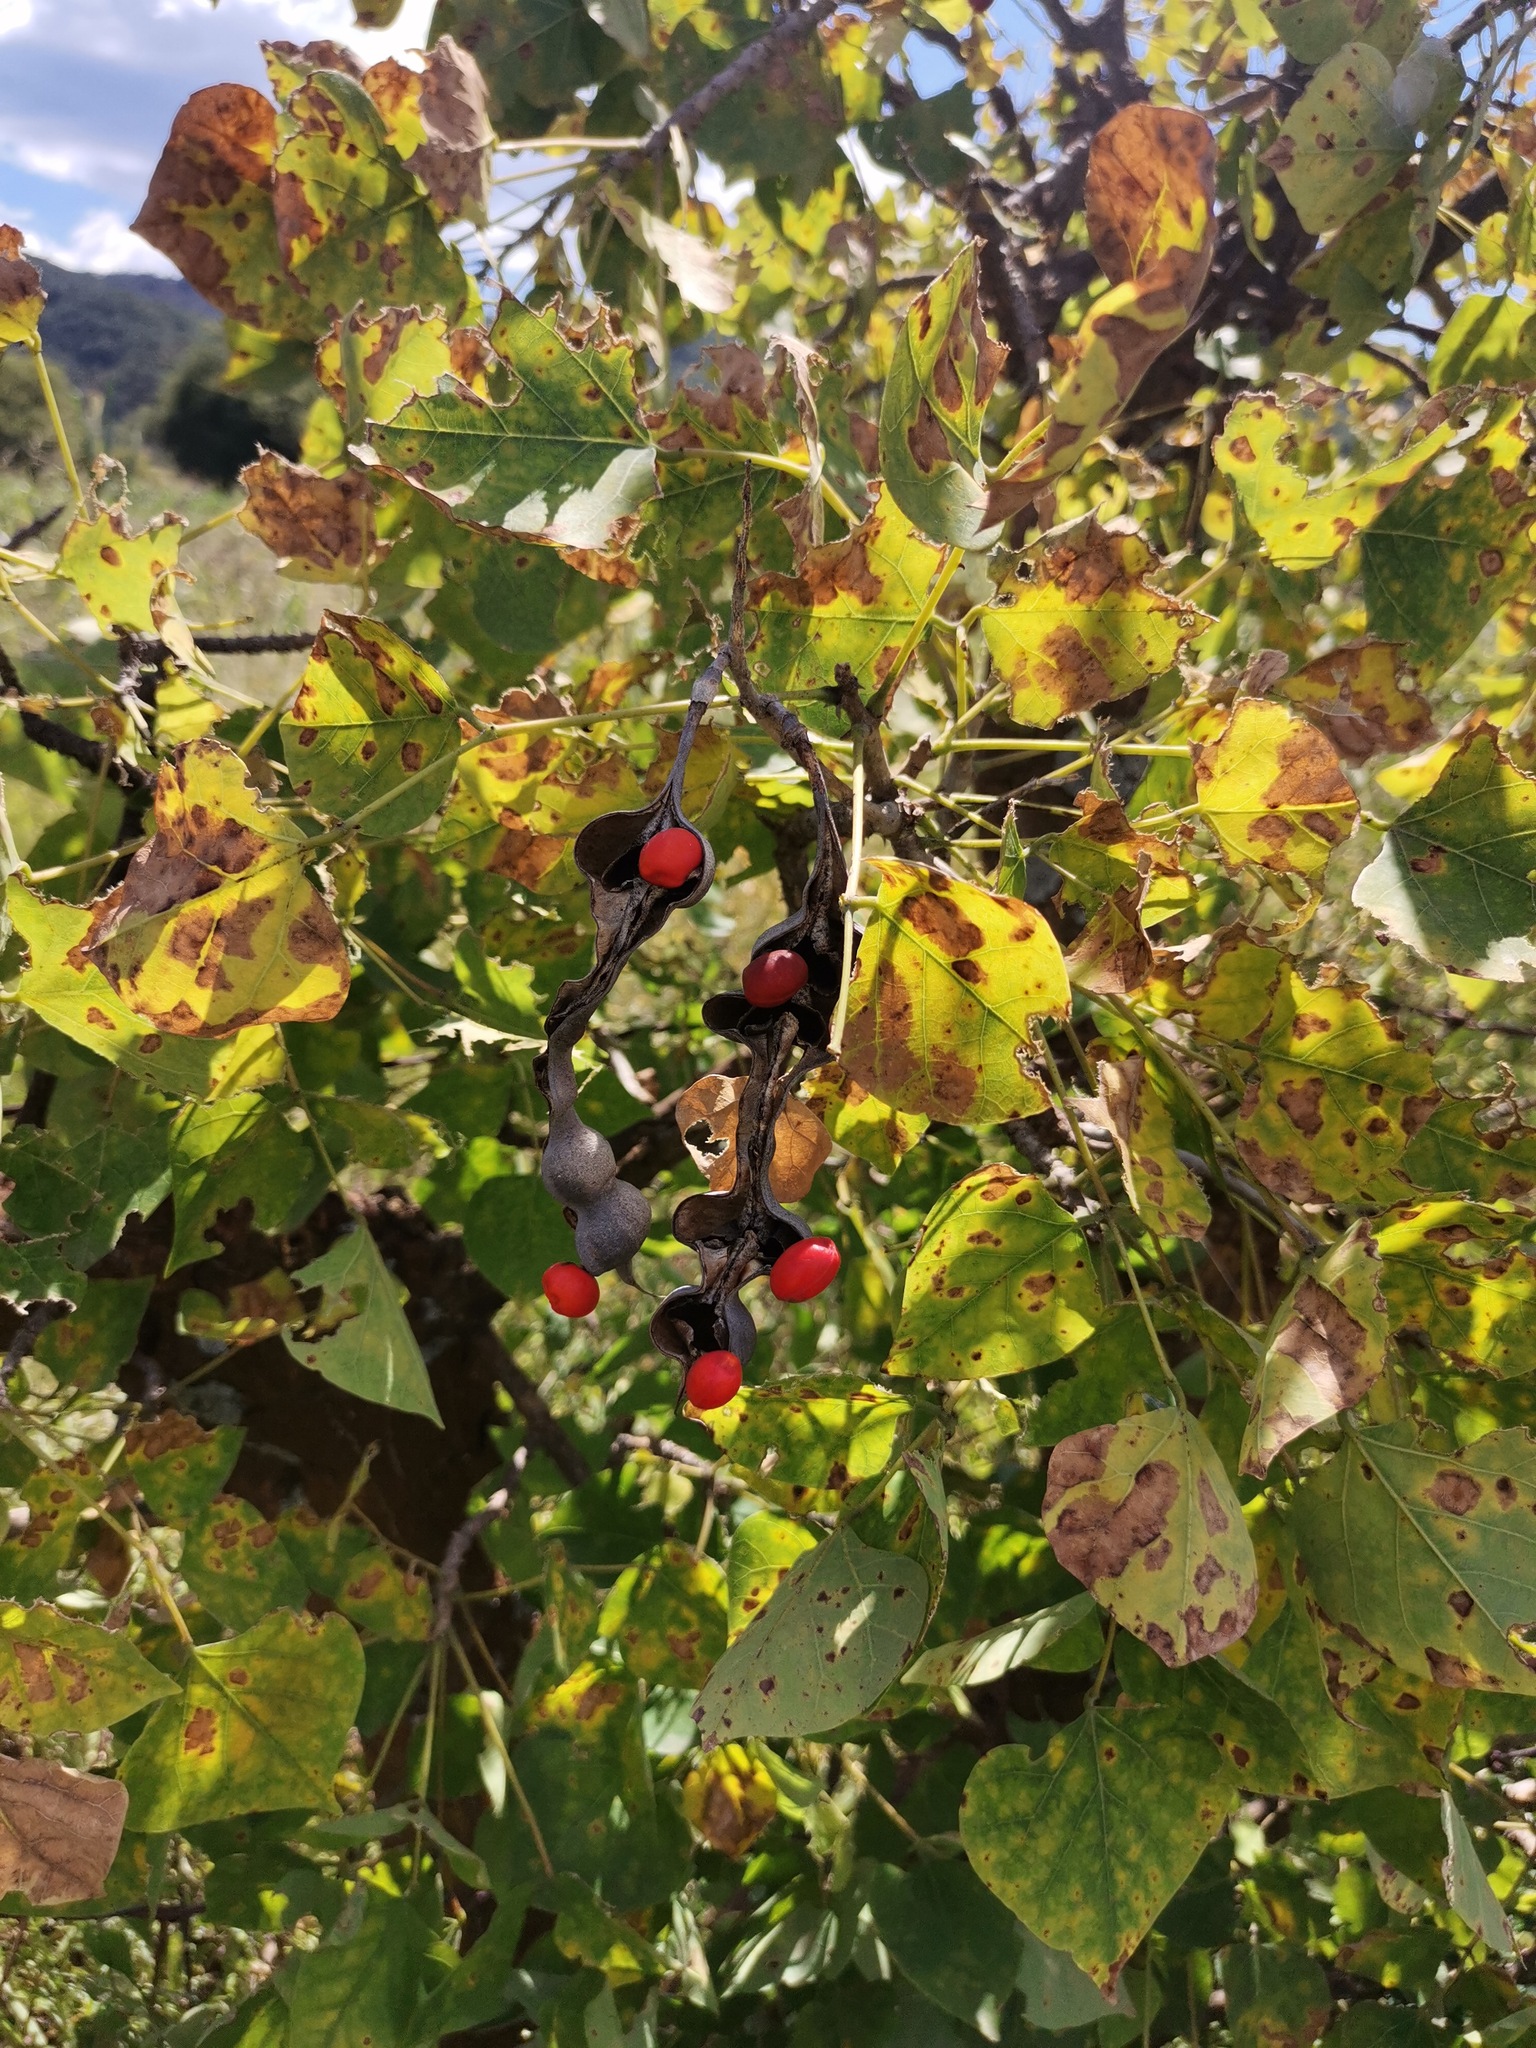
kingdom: Plantae
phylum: Tracheophyta
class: Magnoliopsida
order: Fabales
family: Fabaceae
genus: Erythrina
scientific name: Erythrina americana
